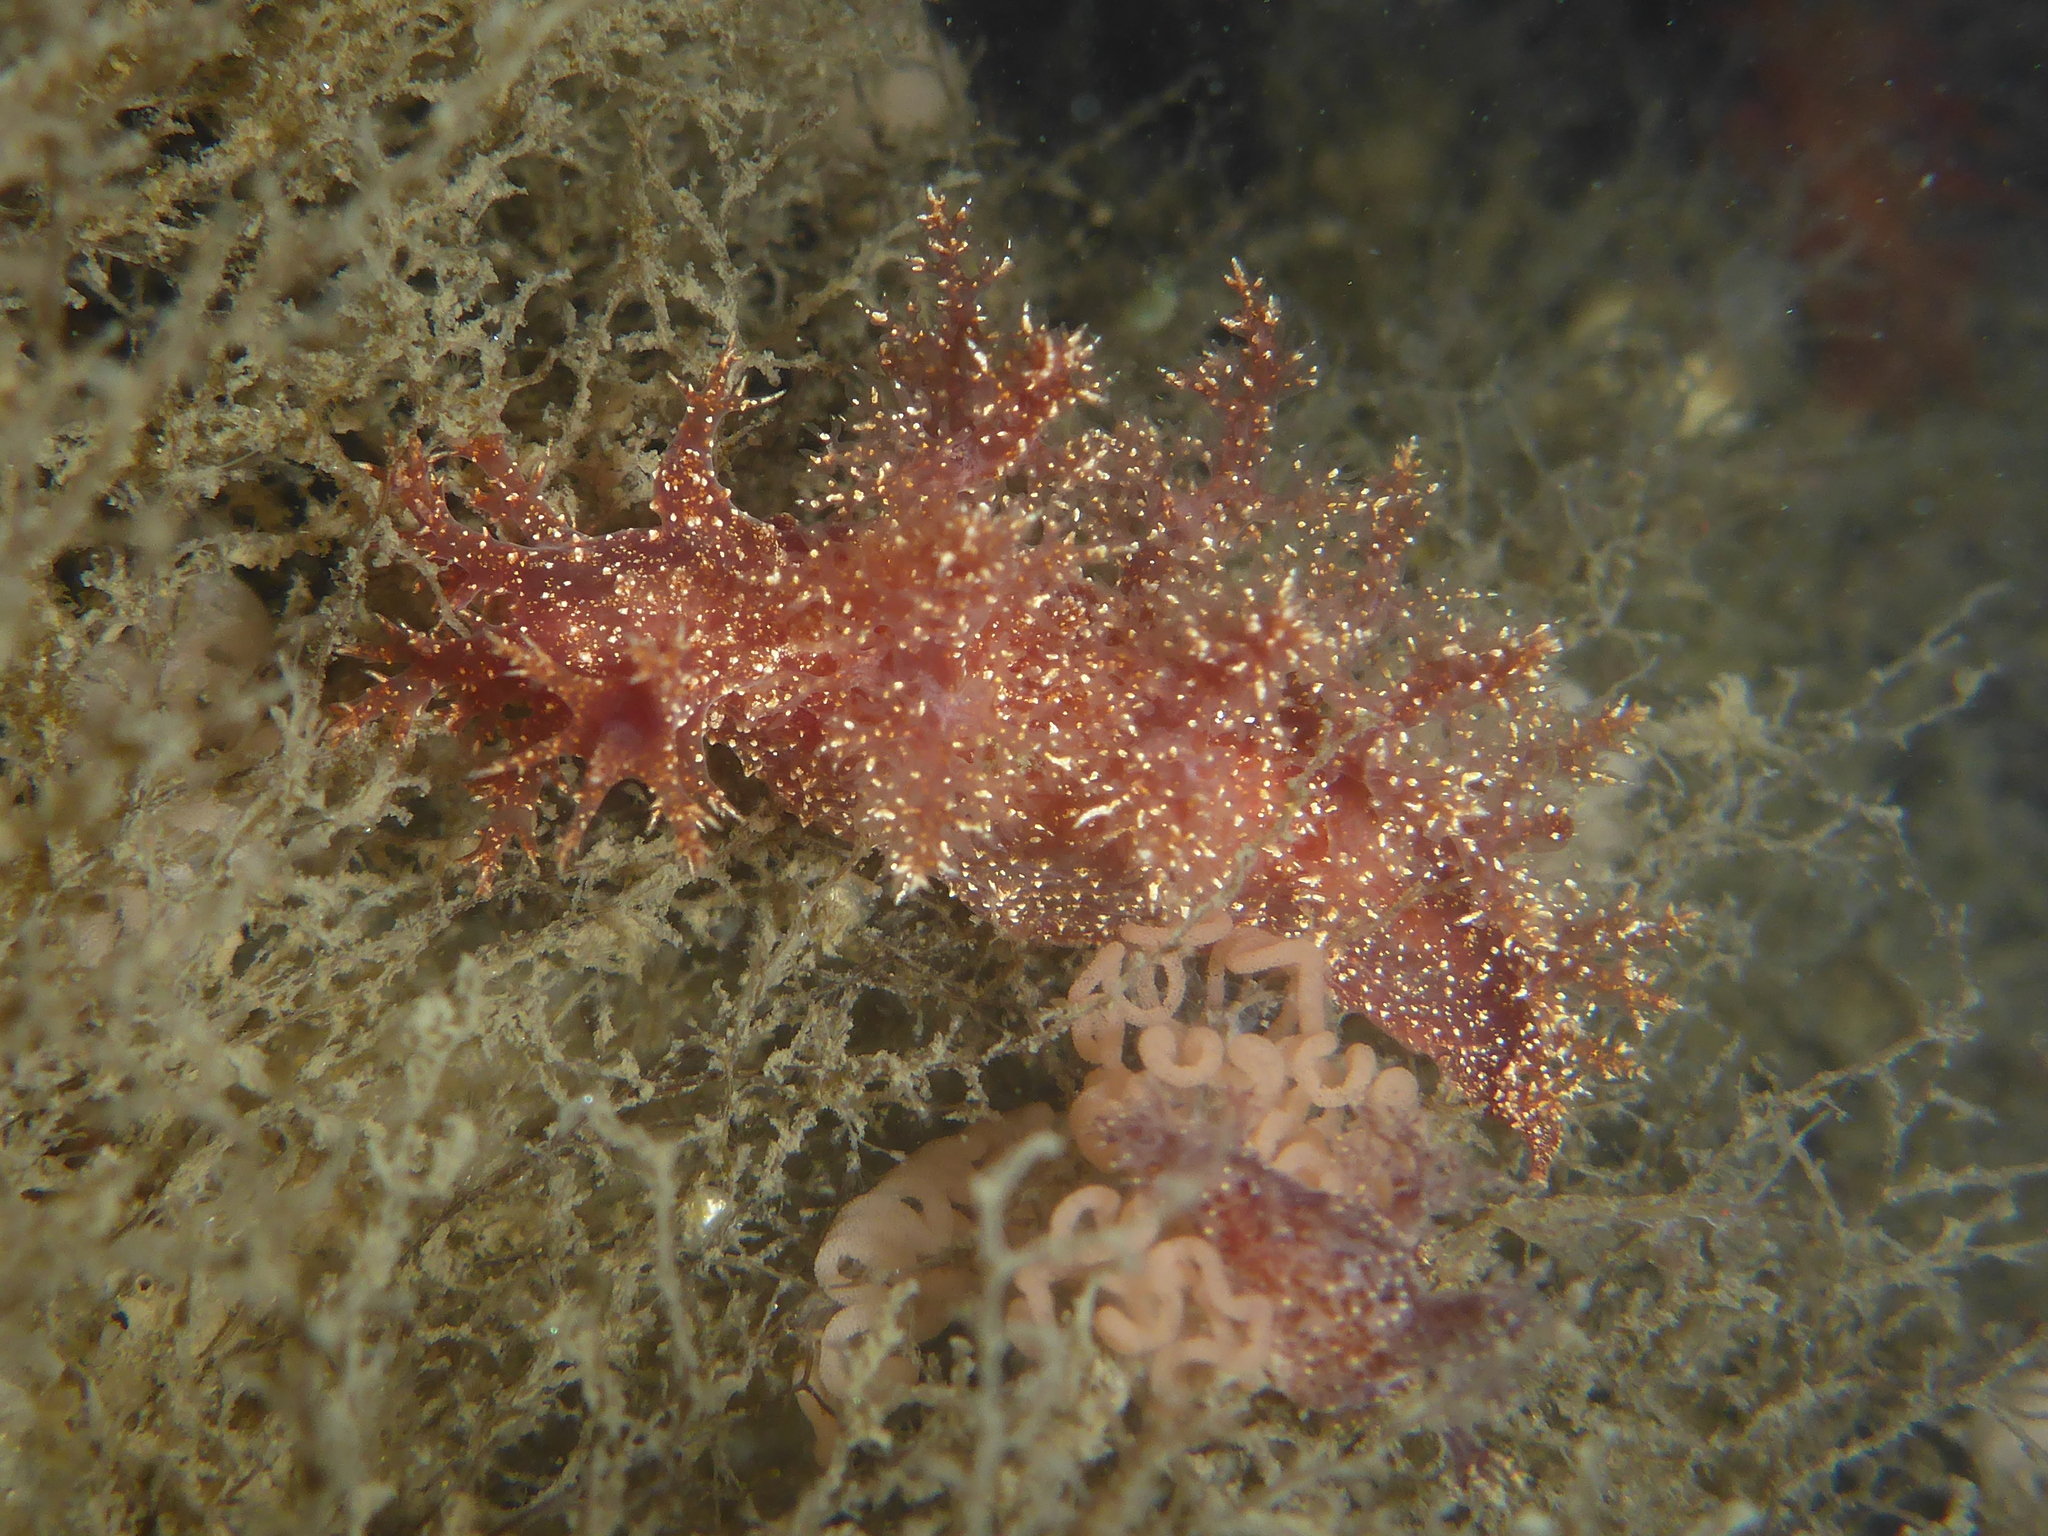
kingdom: Animalia
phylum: Mollusca
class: Gastropoda
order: Nudibranchia
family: Dendronotidae
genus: Dendronotus
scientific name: Dendronotus venustus
